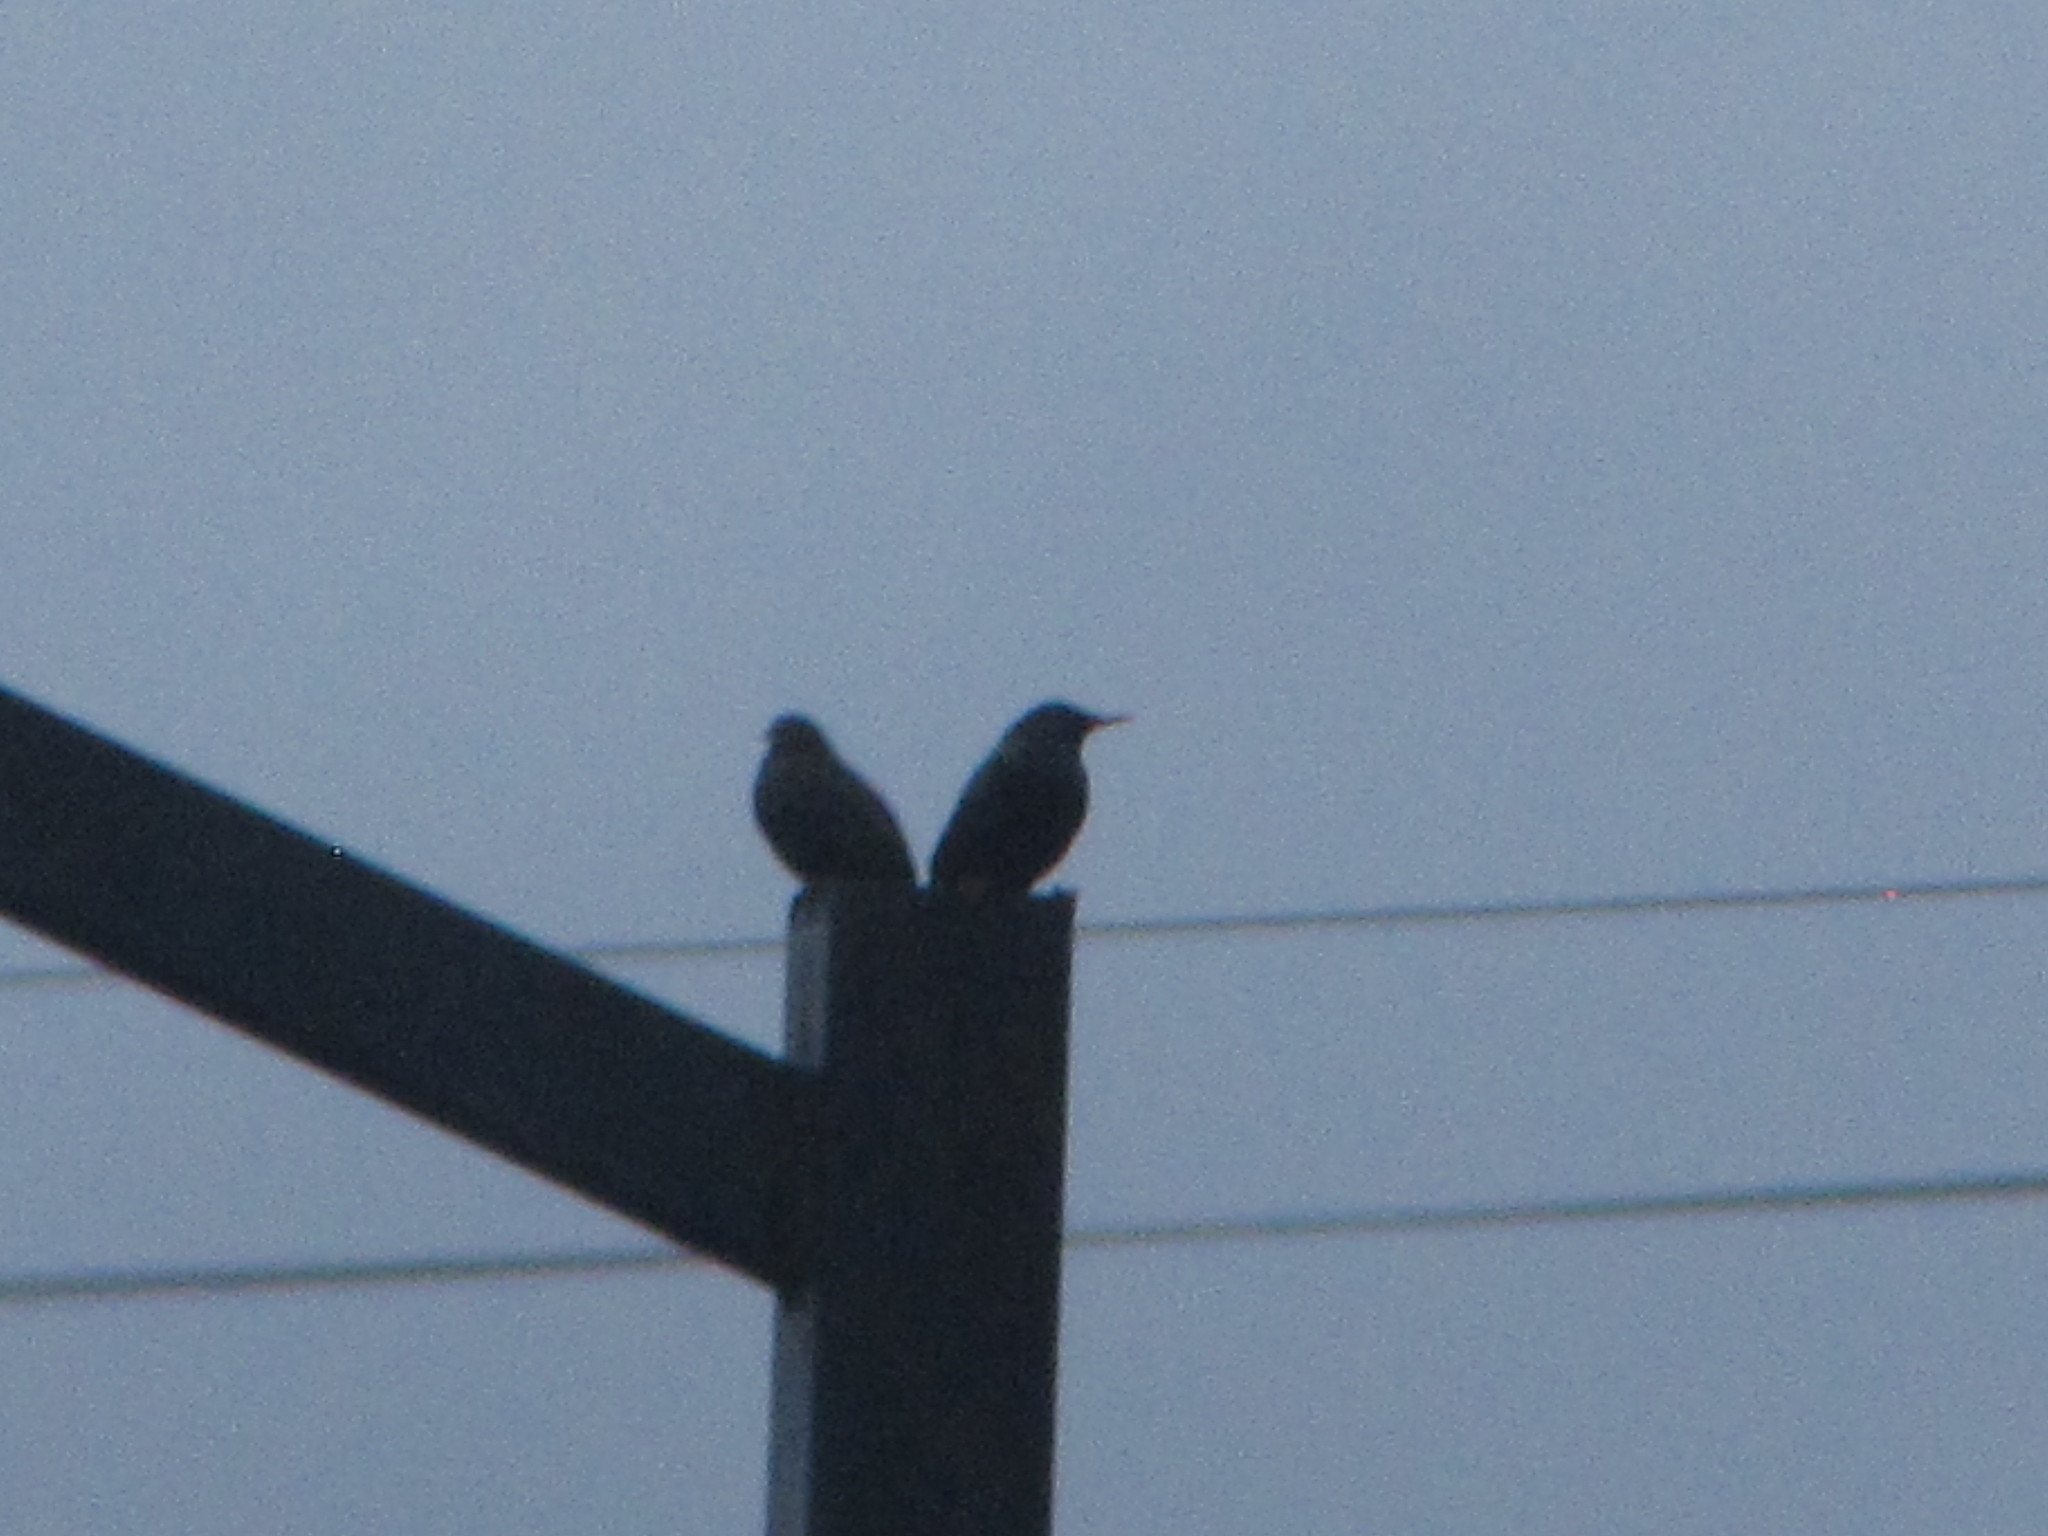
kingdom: Animalia
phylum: Chordata
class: Aves
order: Passeriformes
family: Sturnidae
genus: Sturnus
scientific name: Sturnus vulgaris
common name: Common starling
